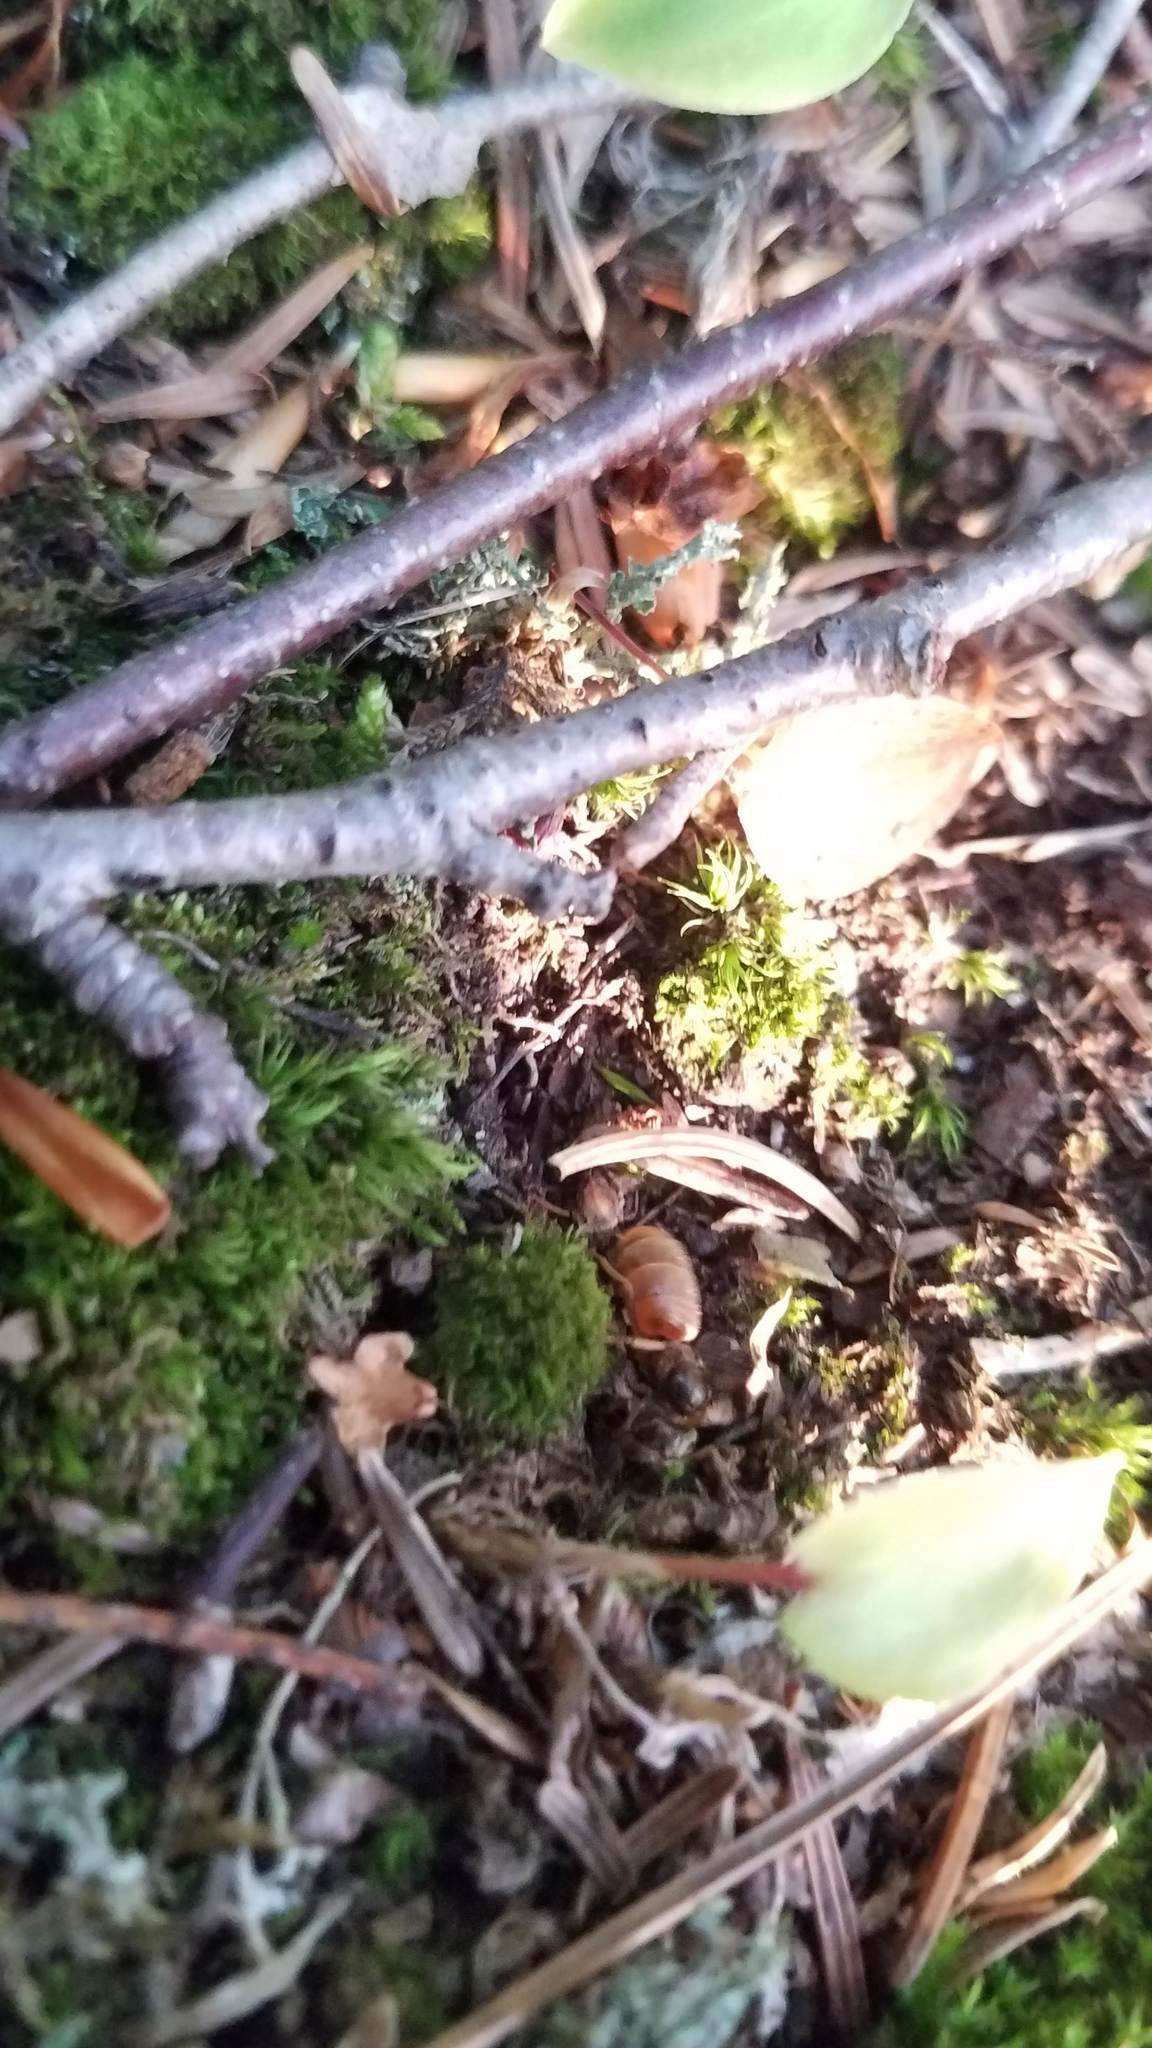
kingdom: Animalia
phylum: Arthropoda
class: Insecta
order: Hymenoptera
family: Formicidae
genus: Lasius
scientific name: Lasius
